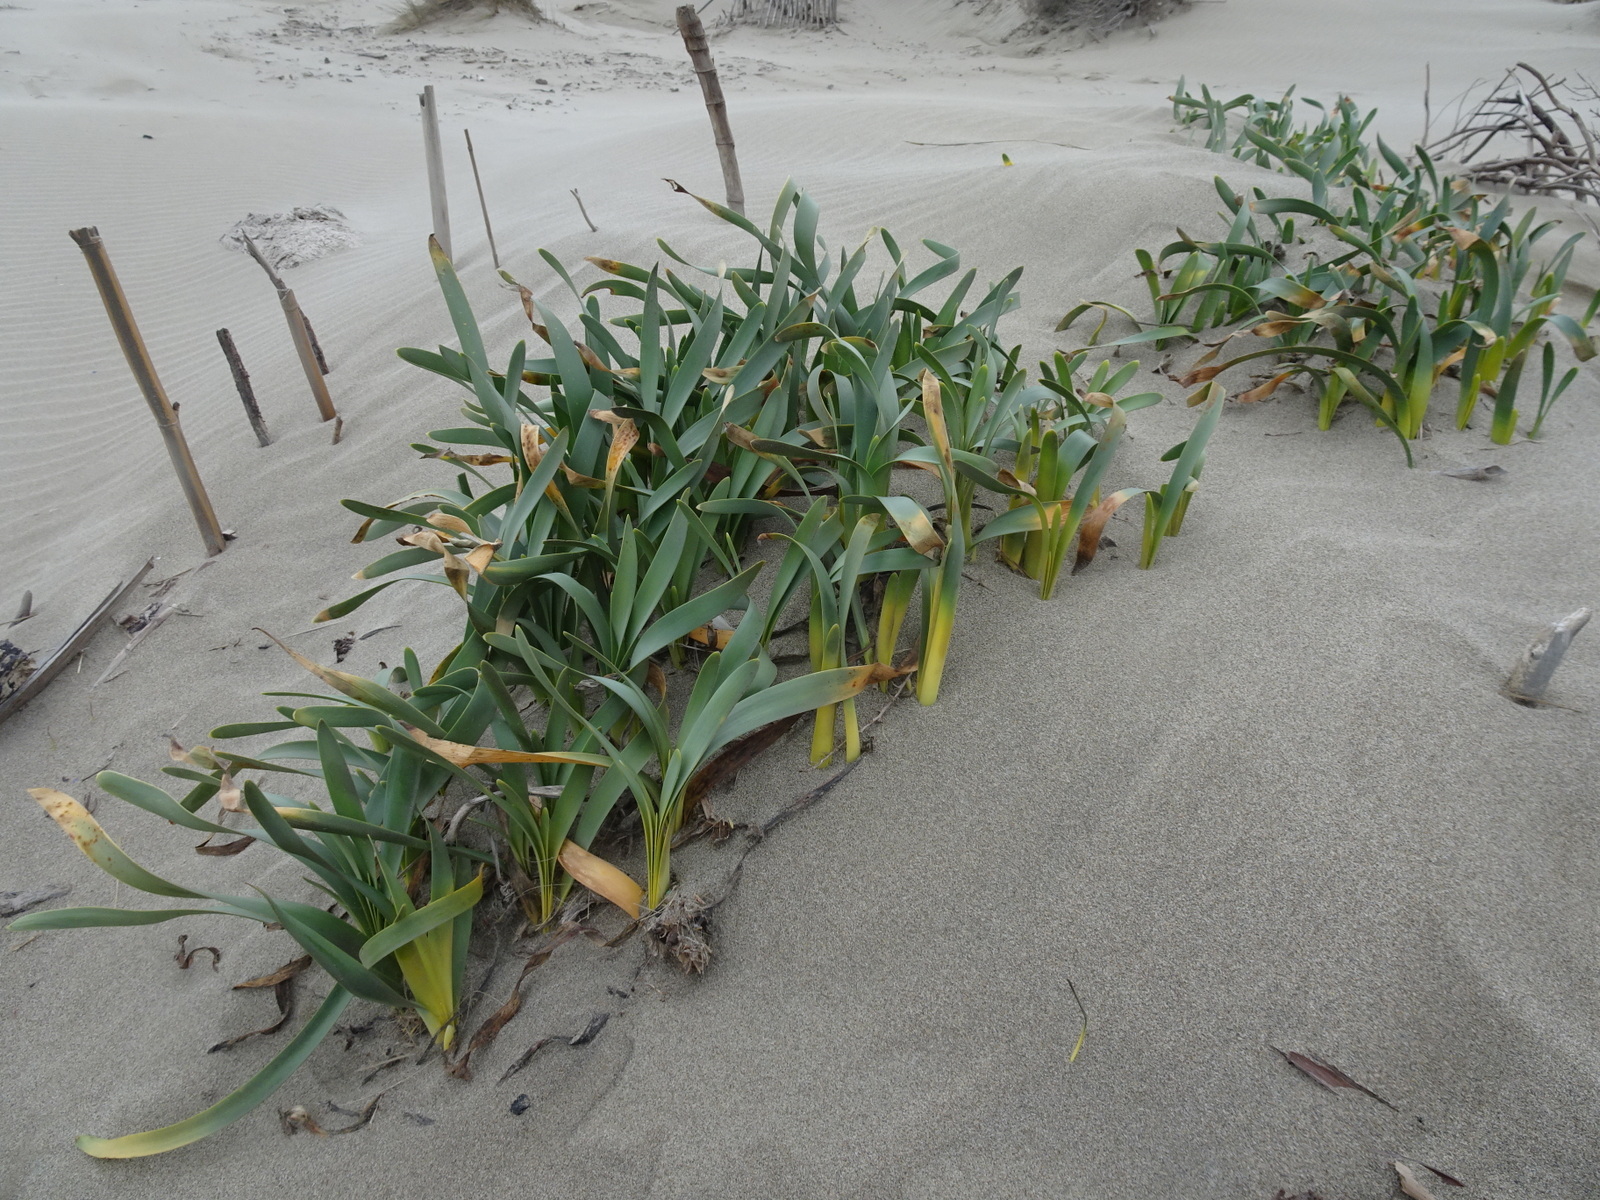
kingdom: Plantae
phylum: Tracheophyta
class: Liliopsida
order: Asparagales
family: Amaryllidaceae
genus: Pancratium
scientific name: Pancratium maritimum
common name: Sea-daffodil
